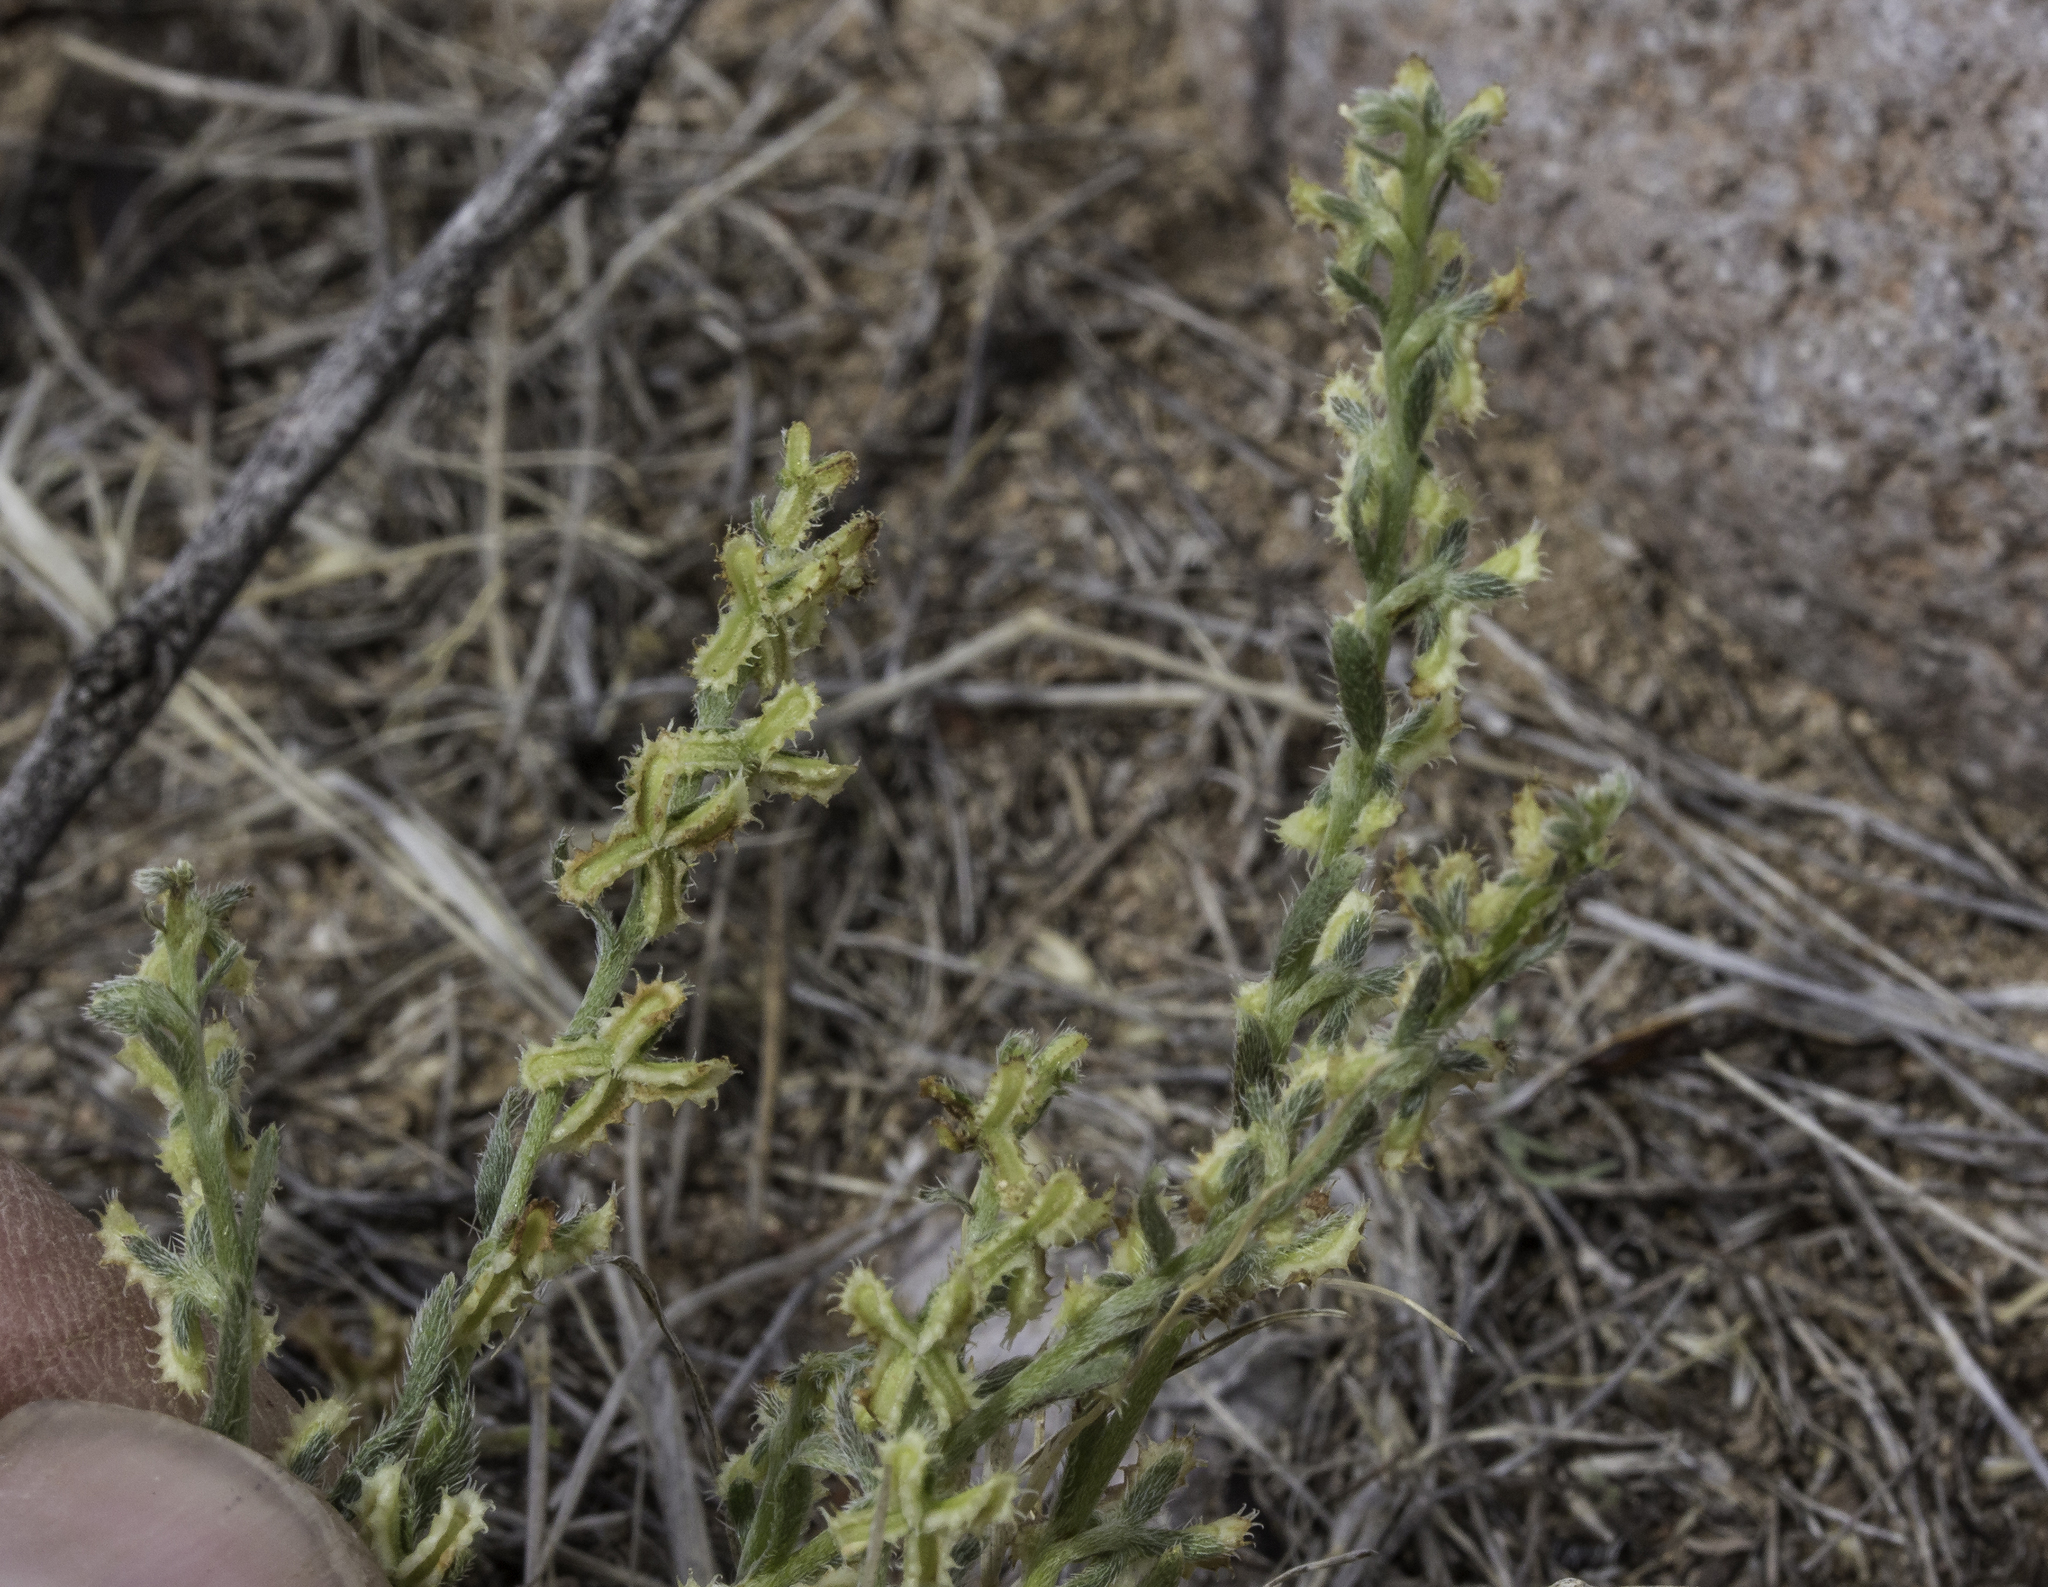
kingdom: Plantae
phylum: Tracheophyta
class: Magnoliopsida
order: Boraginales
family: Boraginaceae
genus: Pectocarya
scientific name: Pectocarya platycarpa
